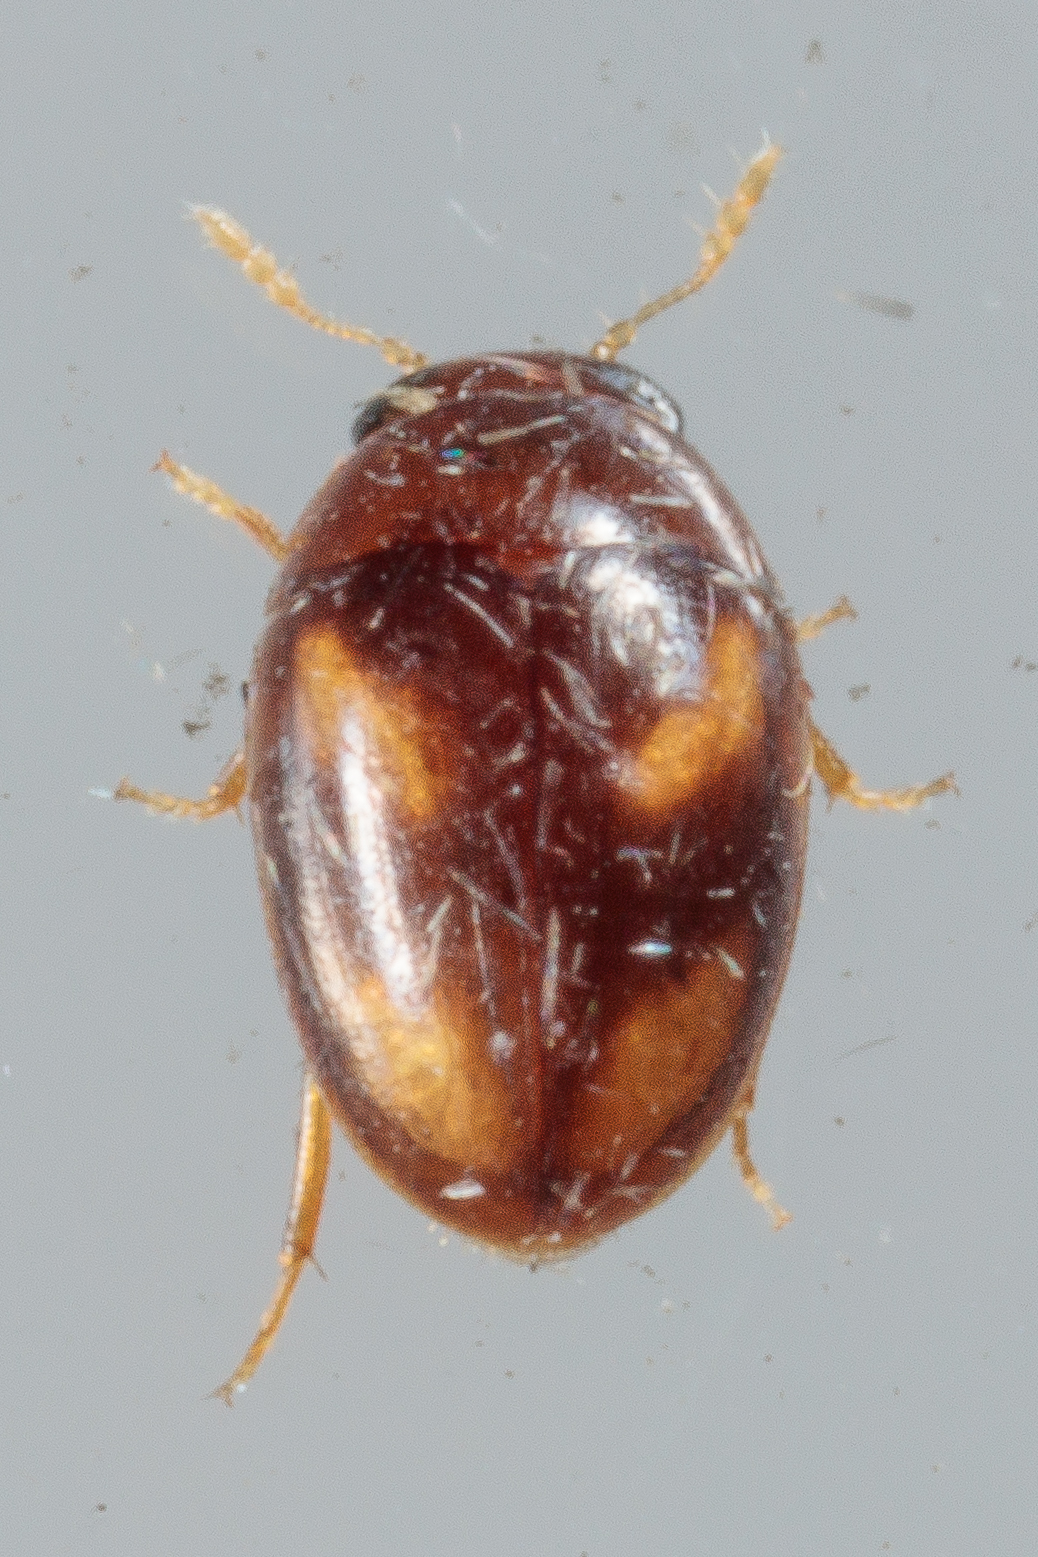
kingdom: Animalia
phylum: Arthropoda
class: Insecta
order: Coleoptera
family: Phalacridae
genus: Neolitochrus
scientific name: Neolitochrus
